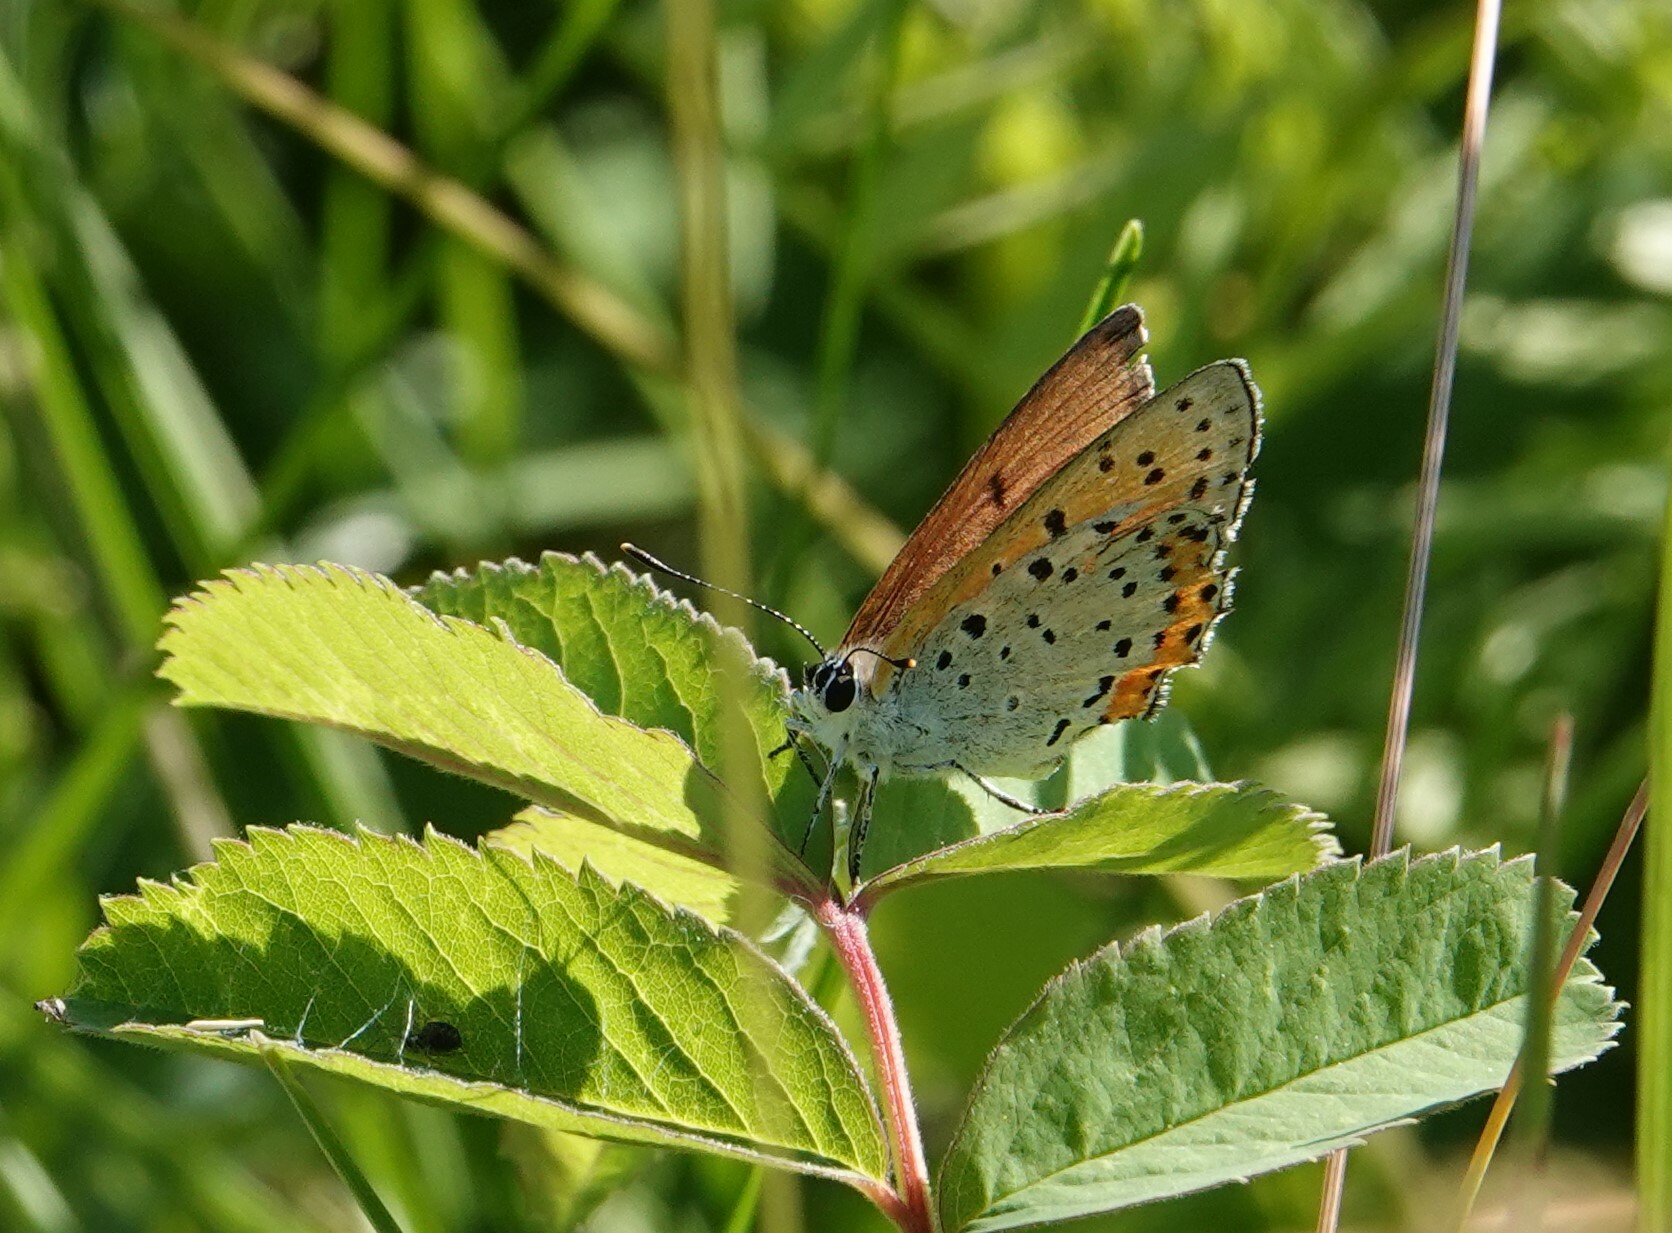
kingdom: Animalia
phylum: Arthropoda
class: Insecta
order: Lepidoptera
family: Lycaenidae
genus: Tharsalea
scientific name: Tharsalea hyllus
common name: Bronze copper
